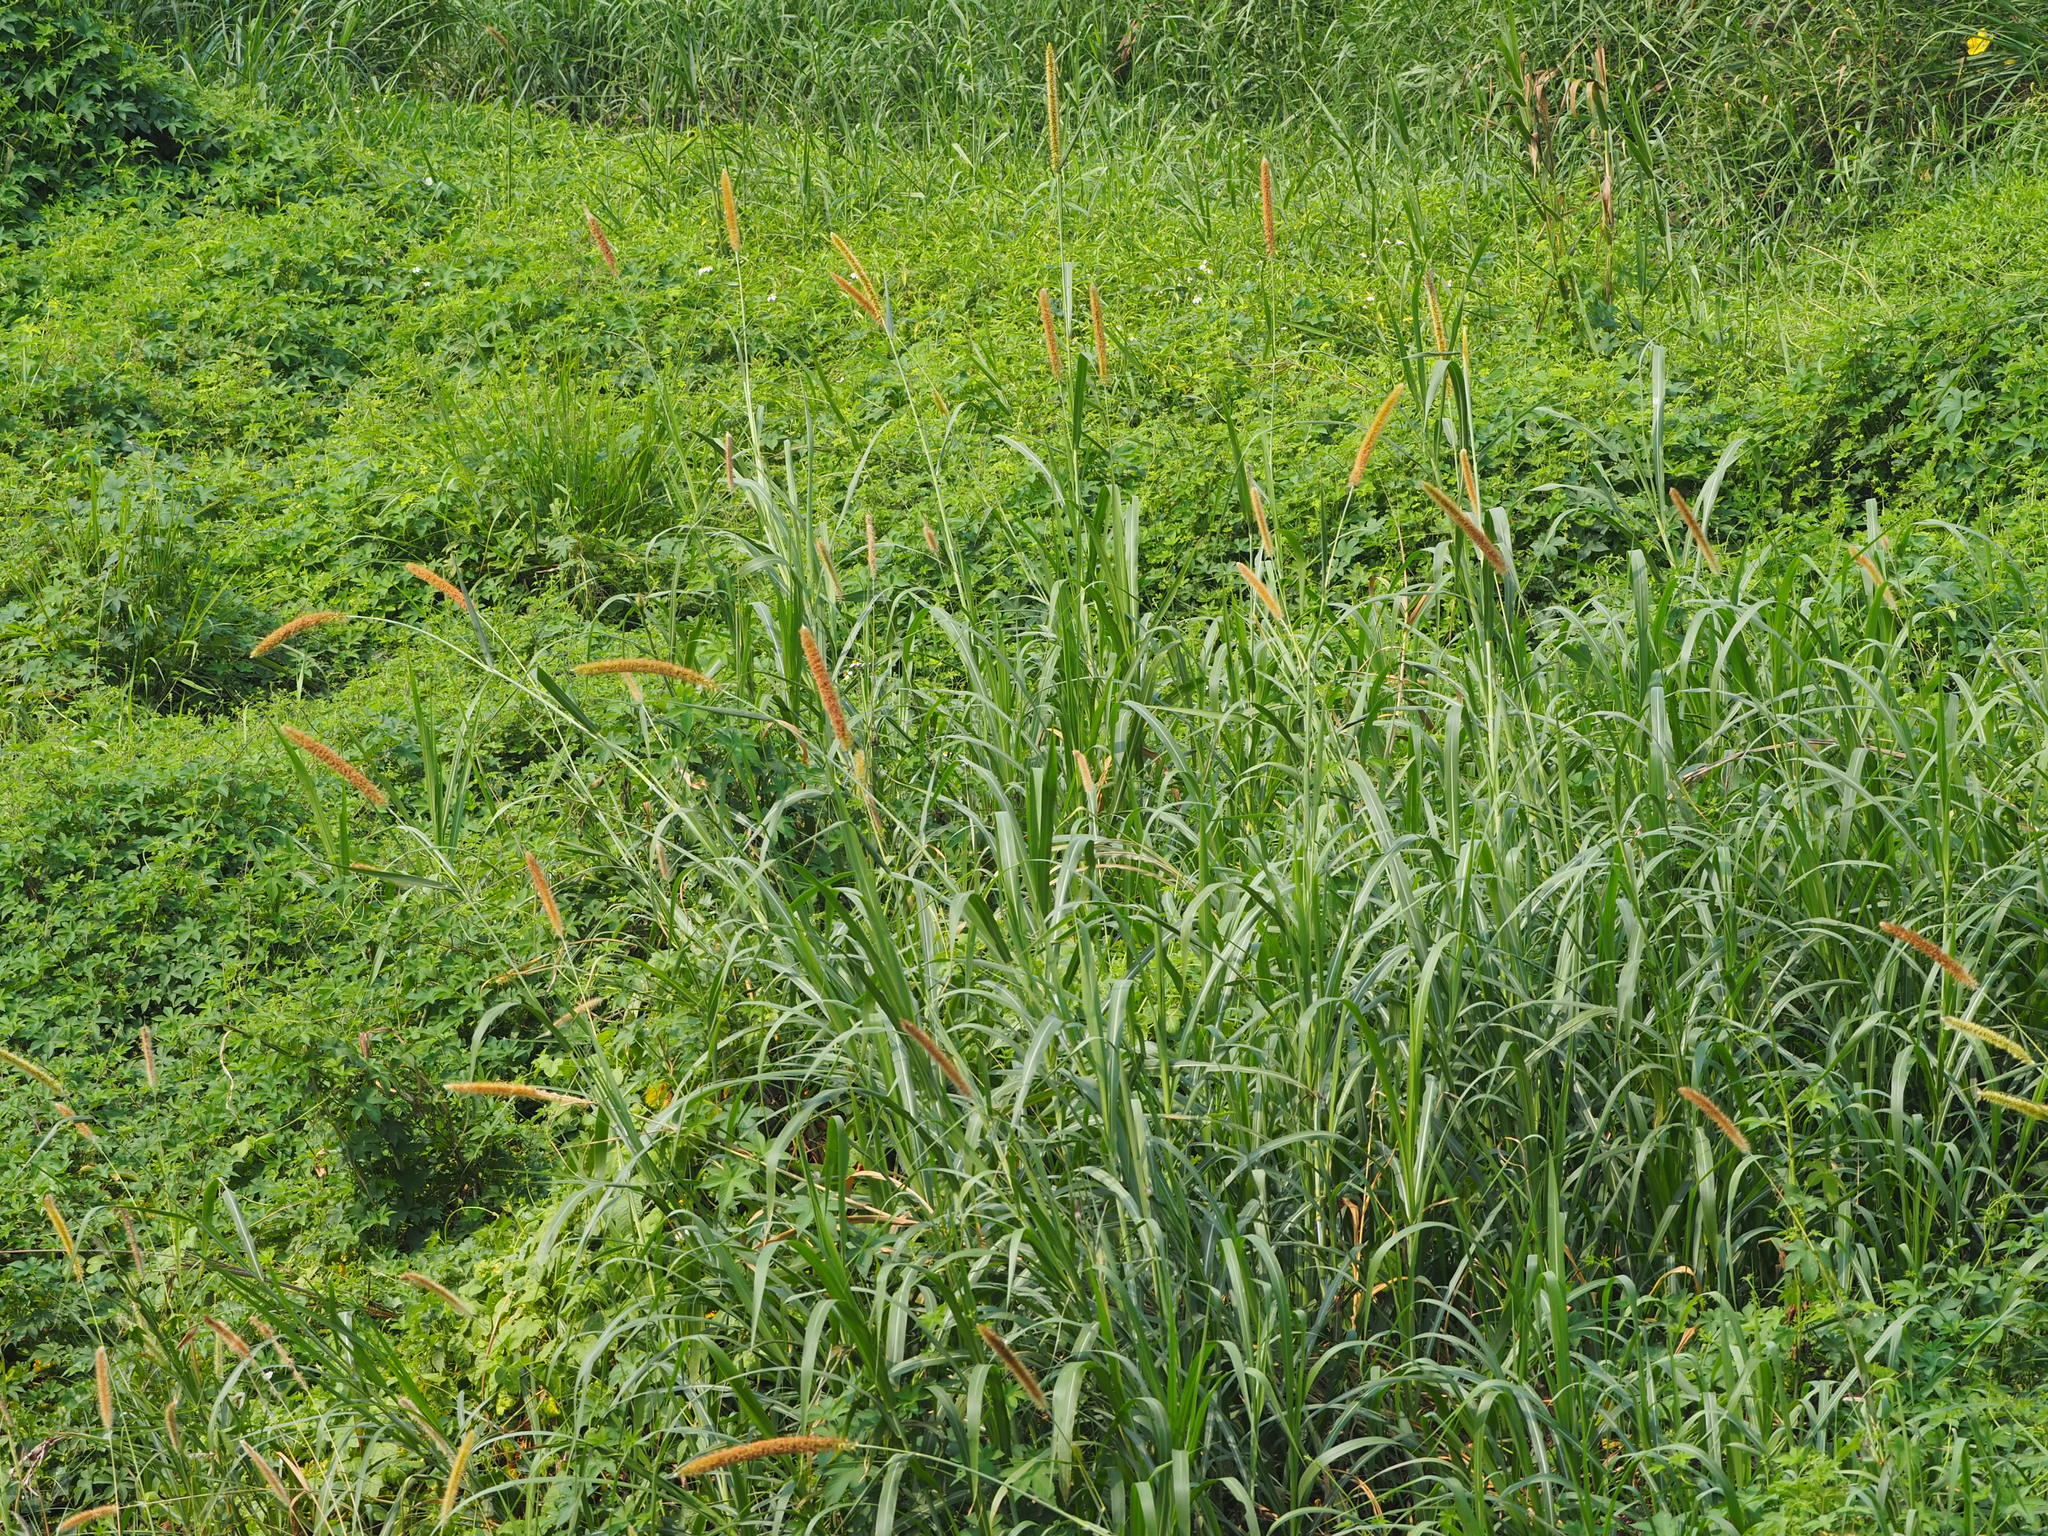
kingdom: Plantae
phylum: Tracheophyta
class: Liliopsida
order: Poales
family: Poaceae
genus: Cenchrus
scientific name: Cenchrus purpureus
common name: Elephant grass
